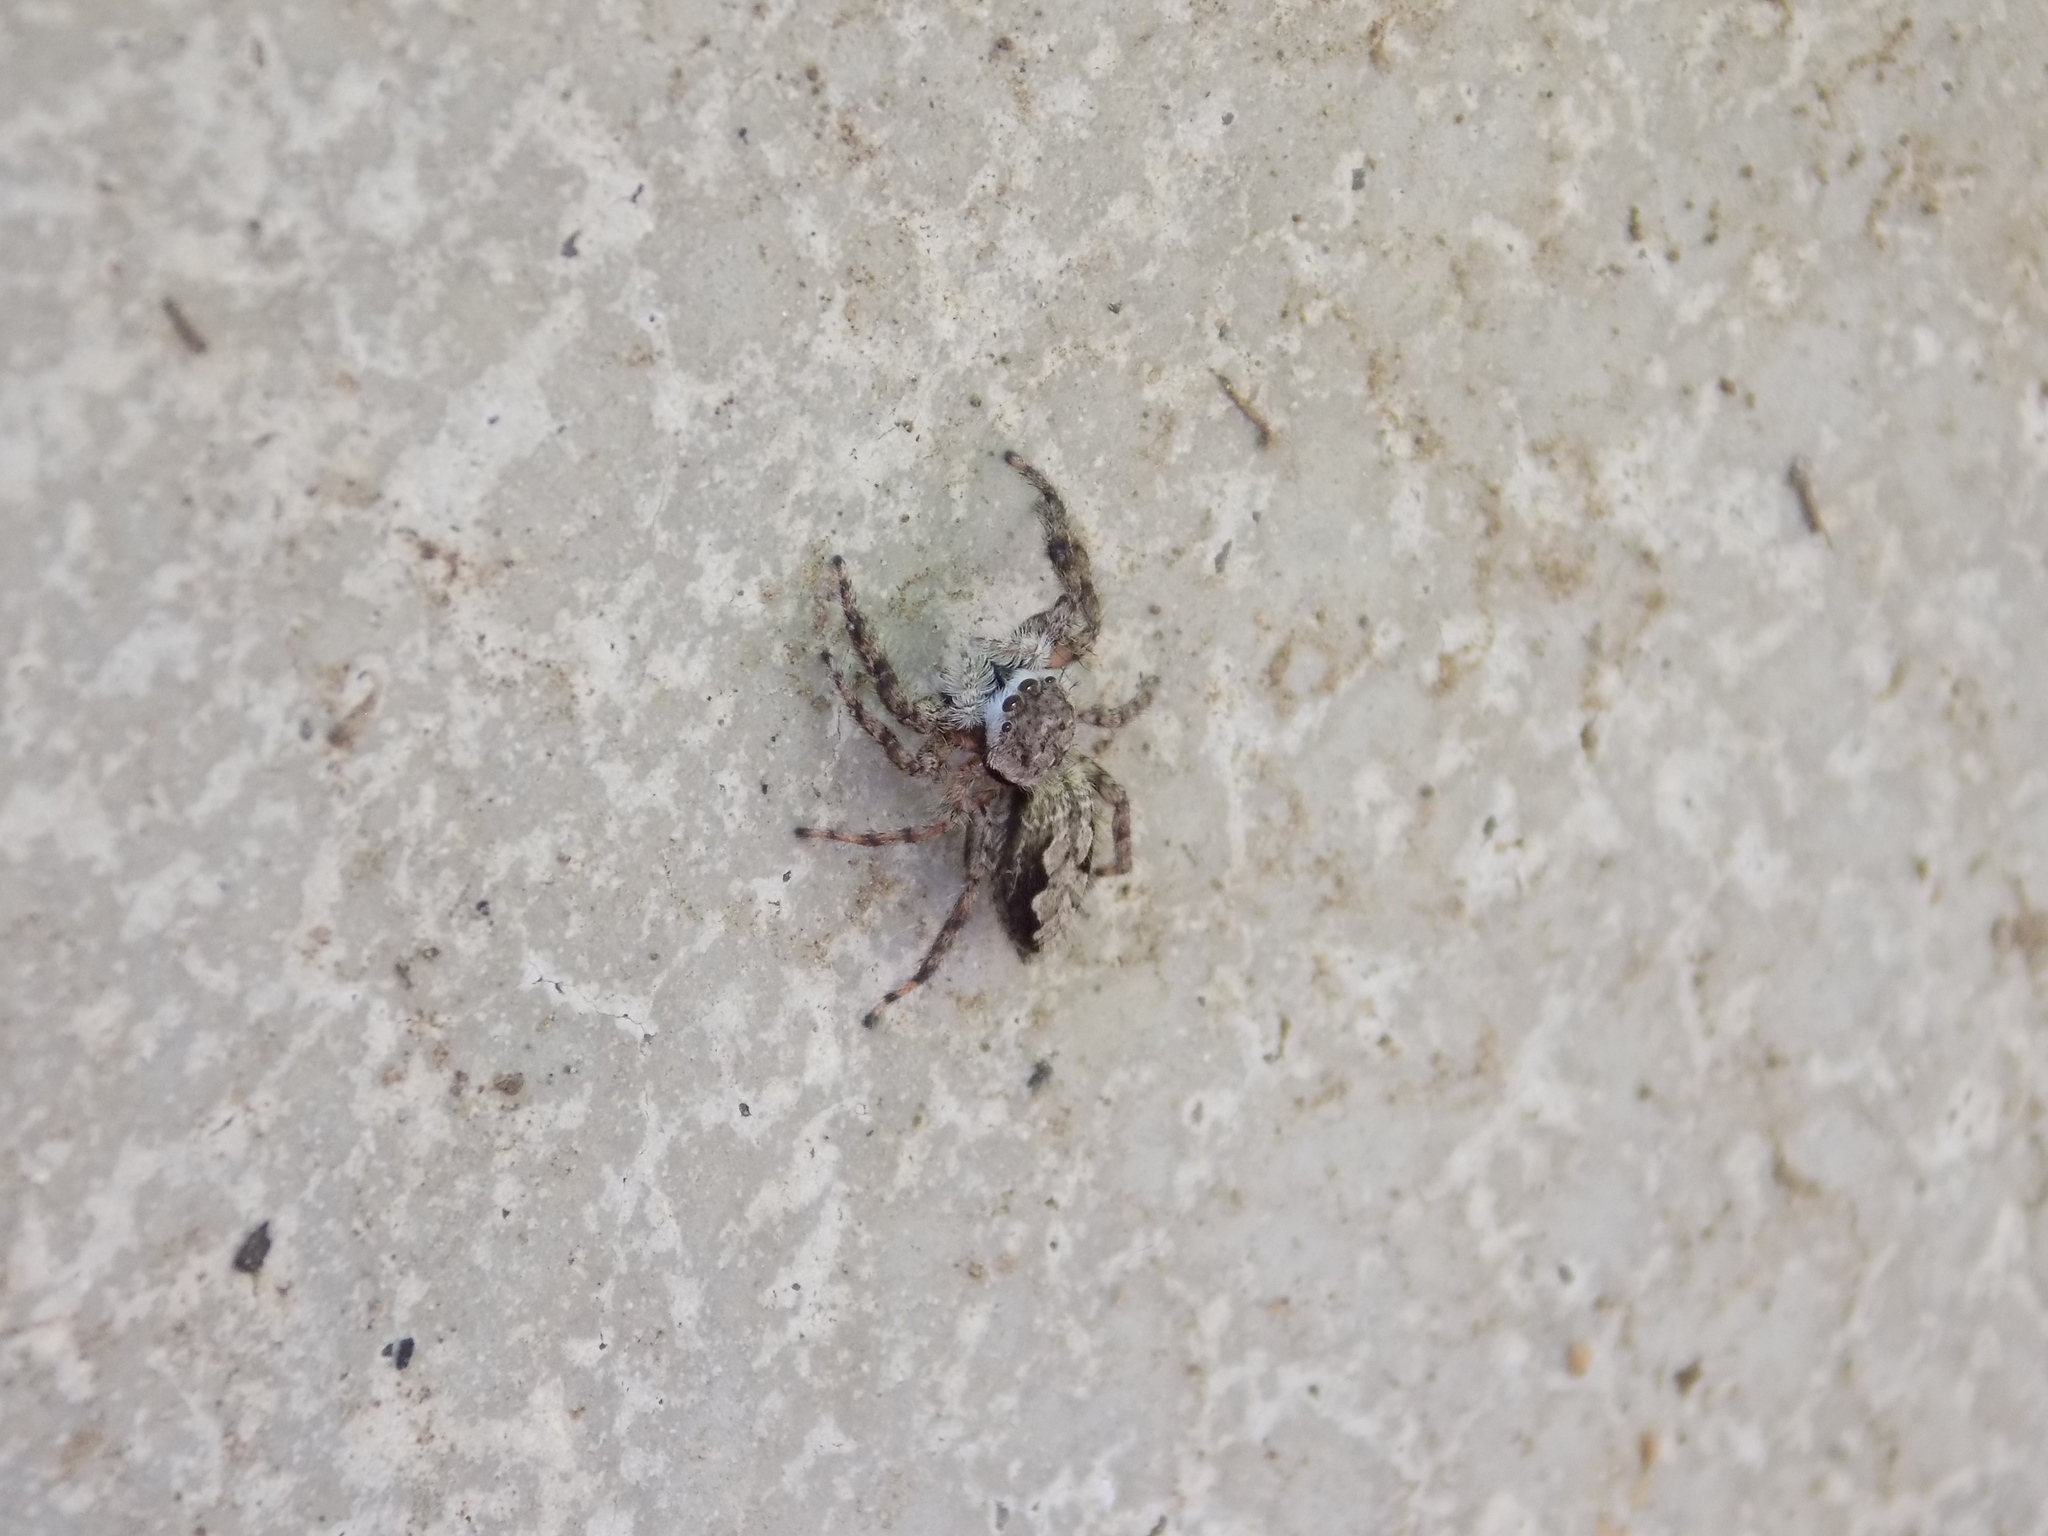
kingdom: Animalia
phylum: Arthropoda
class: Arachnida
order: Araneae
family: Salticidae
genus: Platycryptus
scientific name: Platycryptus undatus
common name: Tan jumping spider
